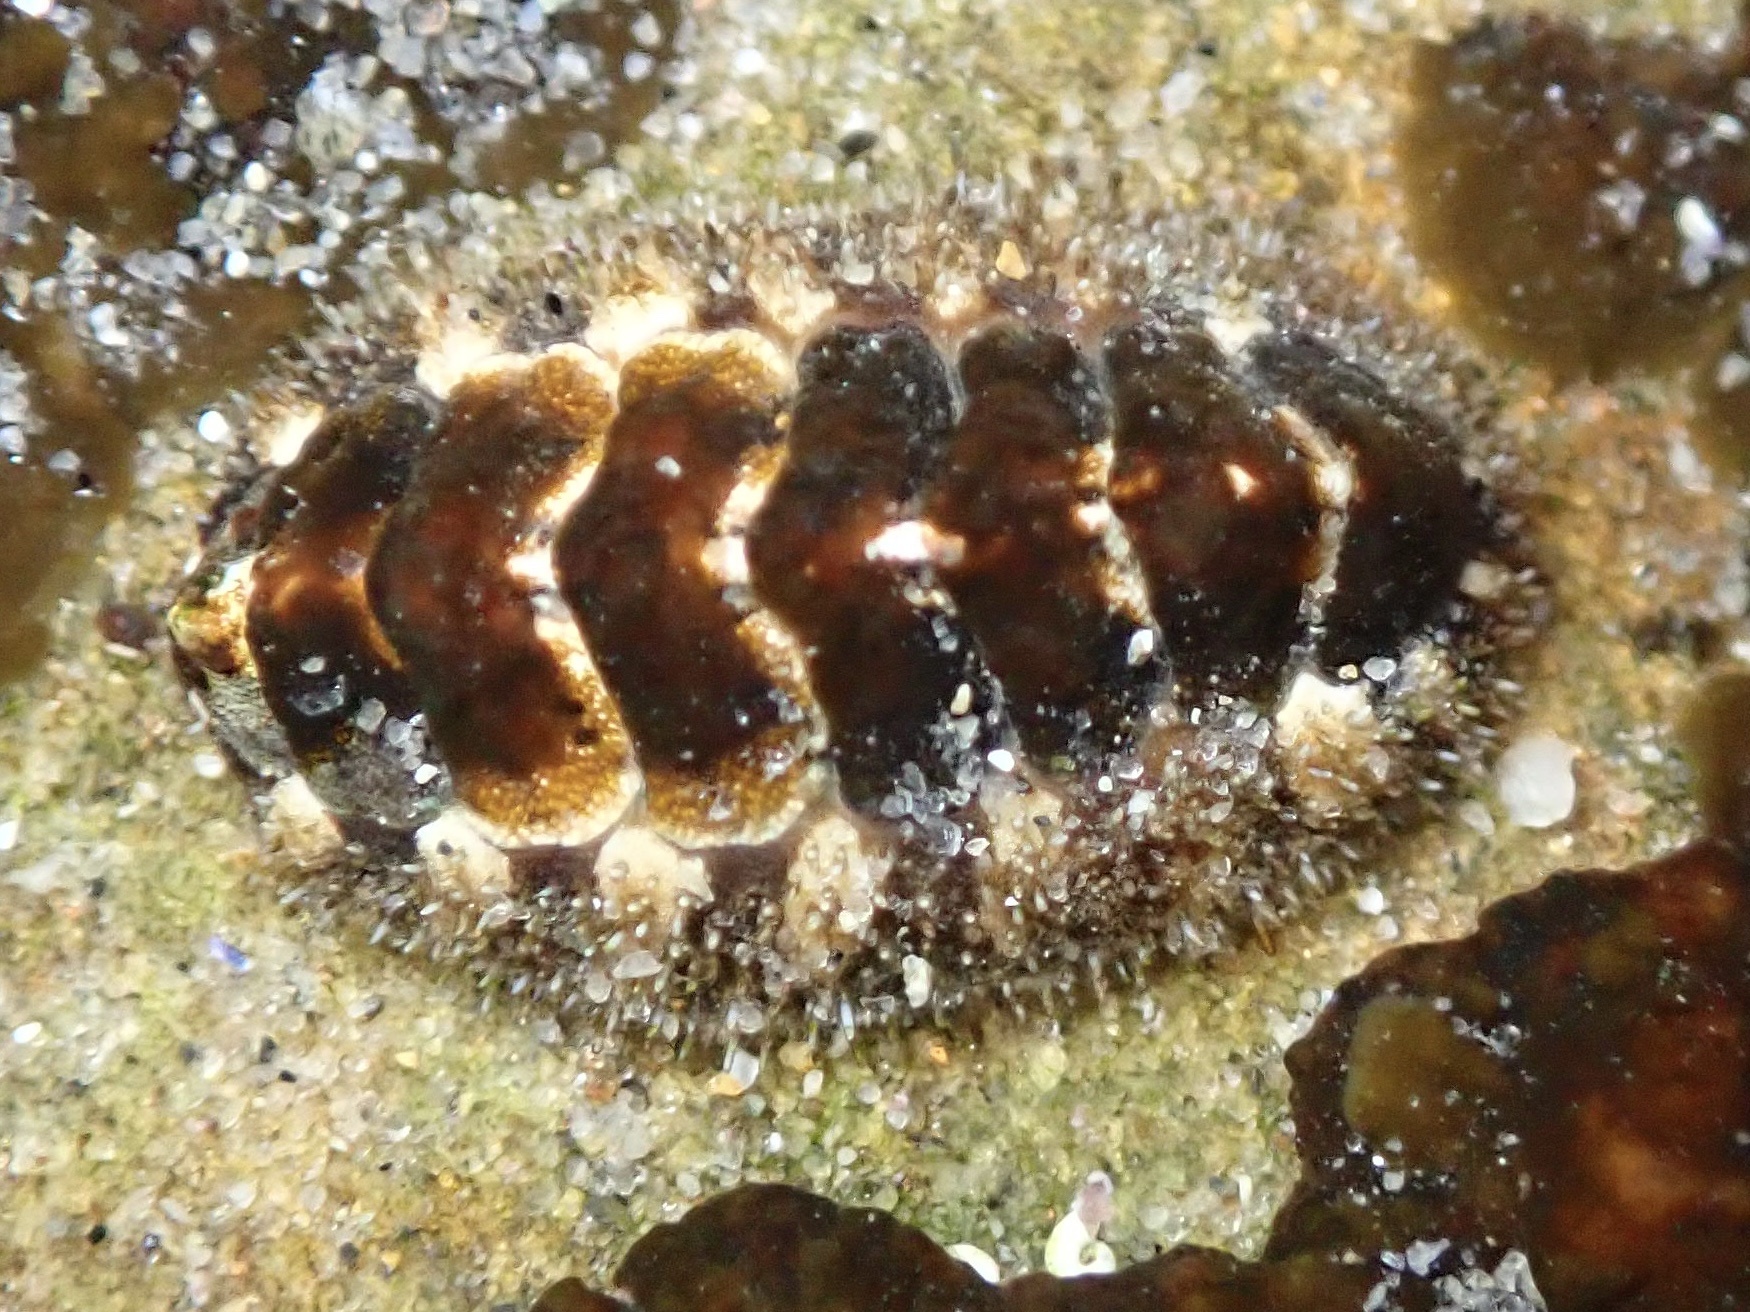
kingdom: Animalia
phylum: Mollusca
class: Polyplacophora
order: Chitonida
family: Tonicellidae
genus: Nuttallina
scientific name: Nuttallina californica
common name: California nuttall chiton
